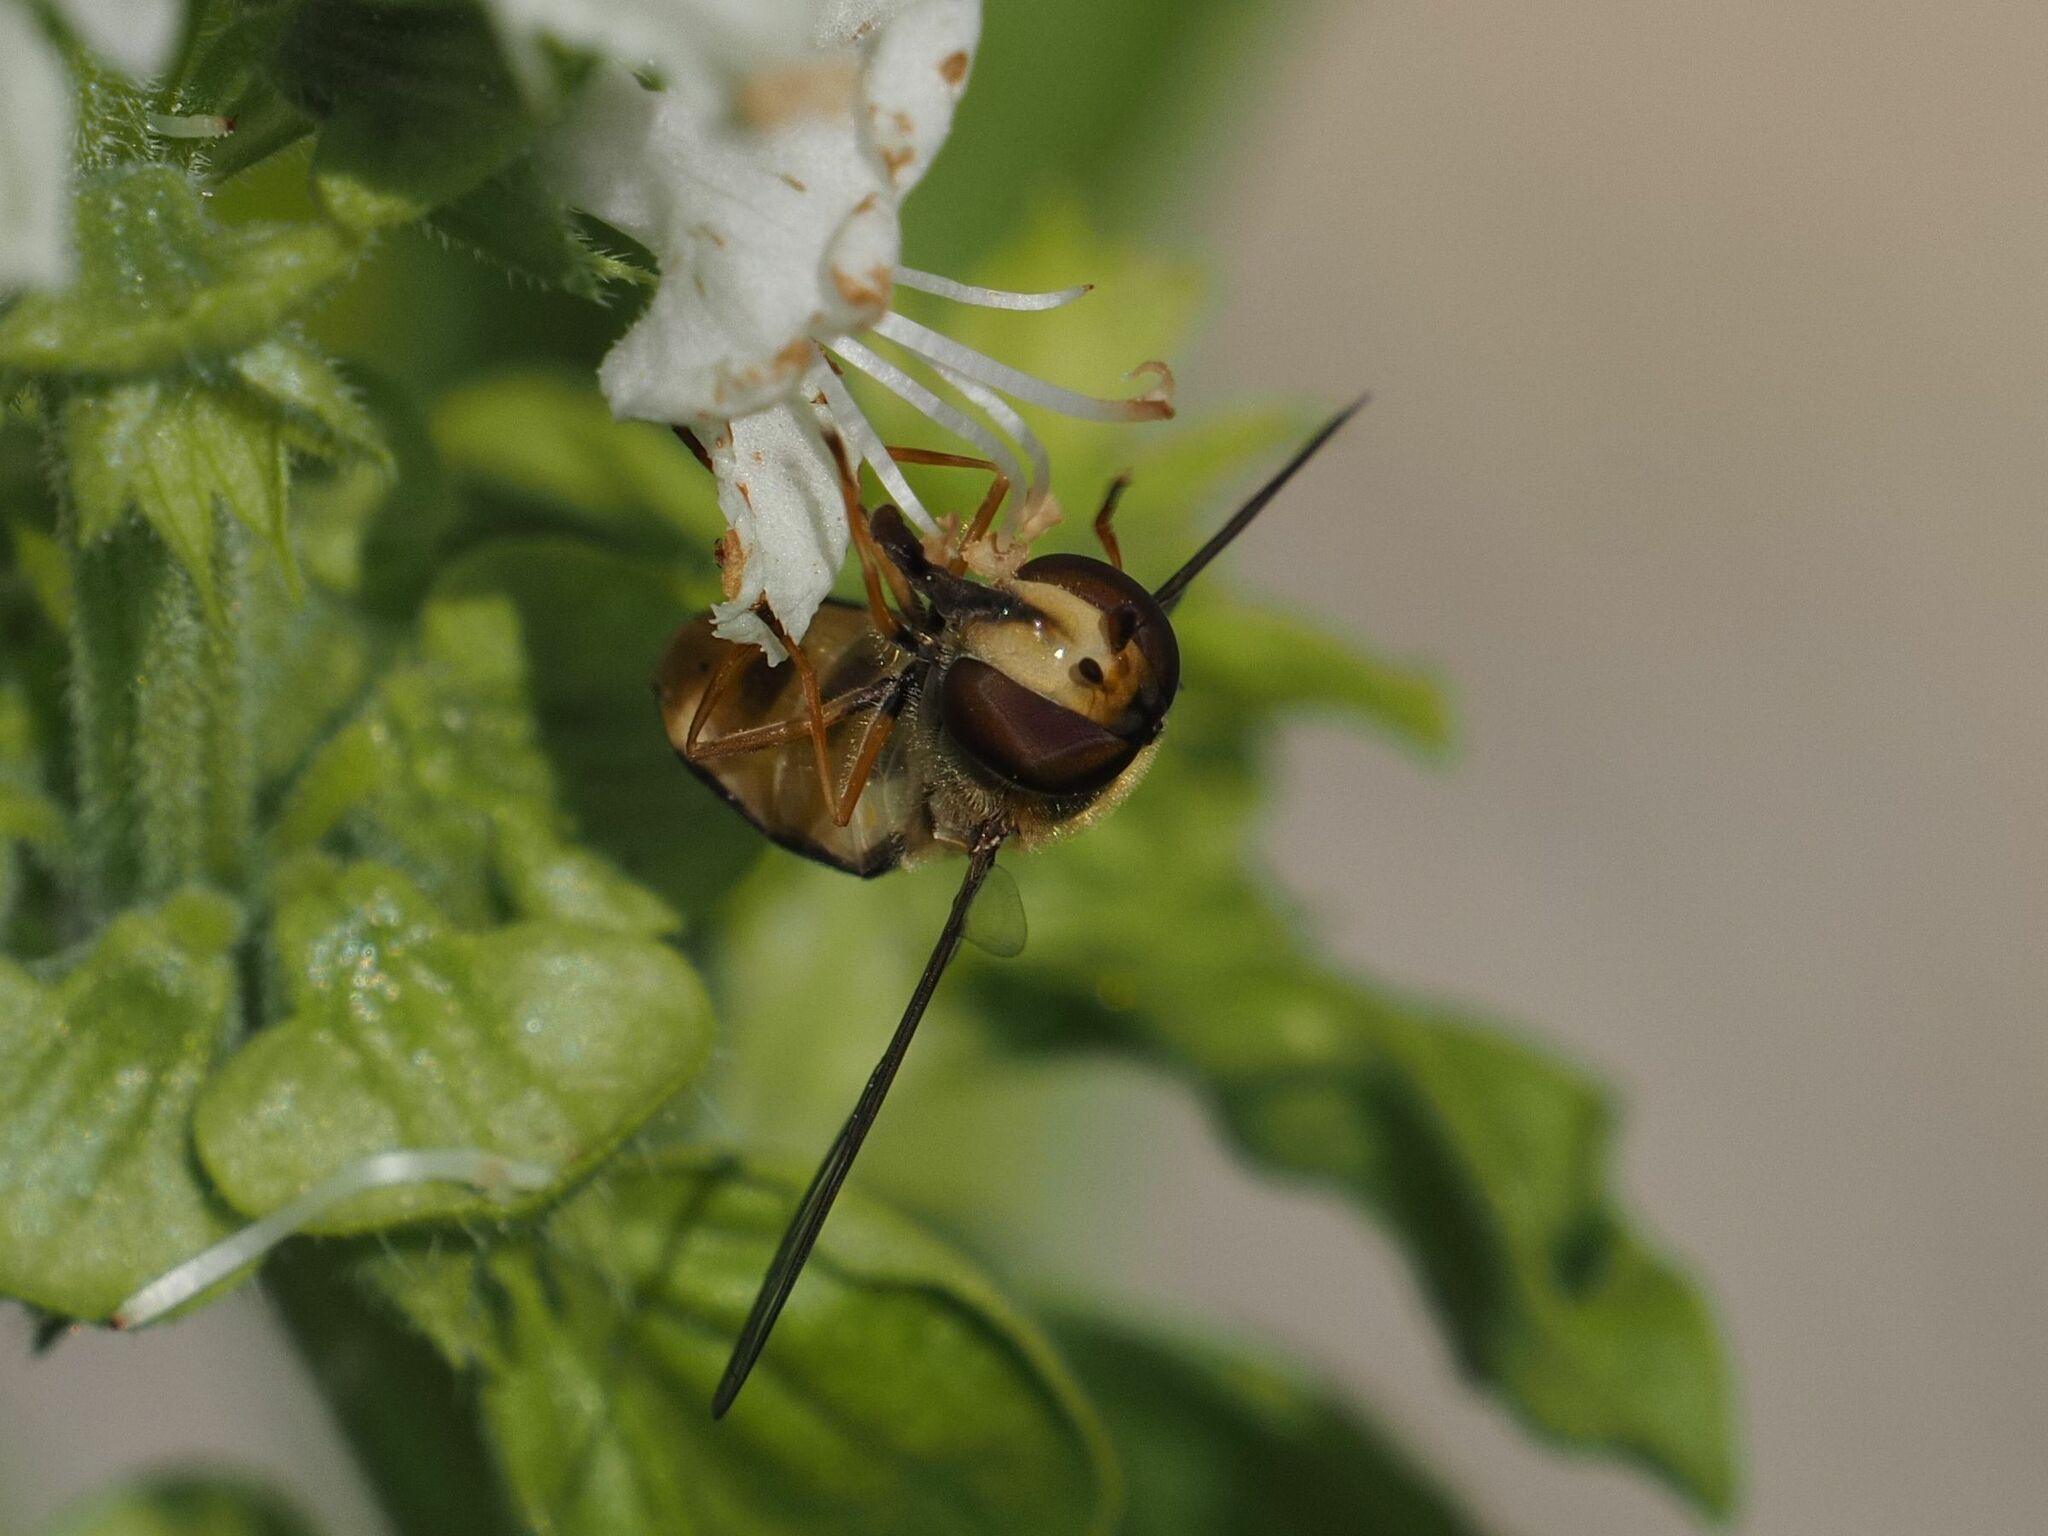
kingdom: Animalia
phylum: Arthropoda
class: Insecta
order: Diptera
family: Syrphidae
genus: Eupeodes
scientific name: Eupeodes luniger
